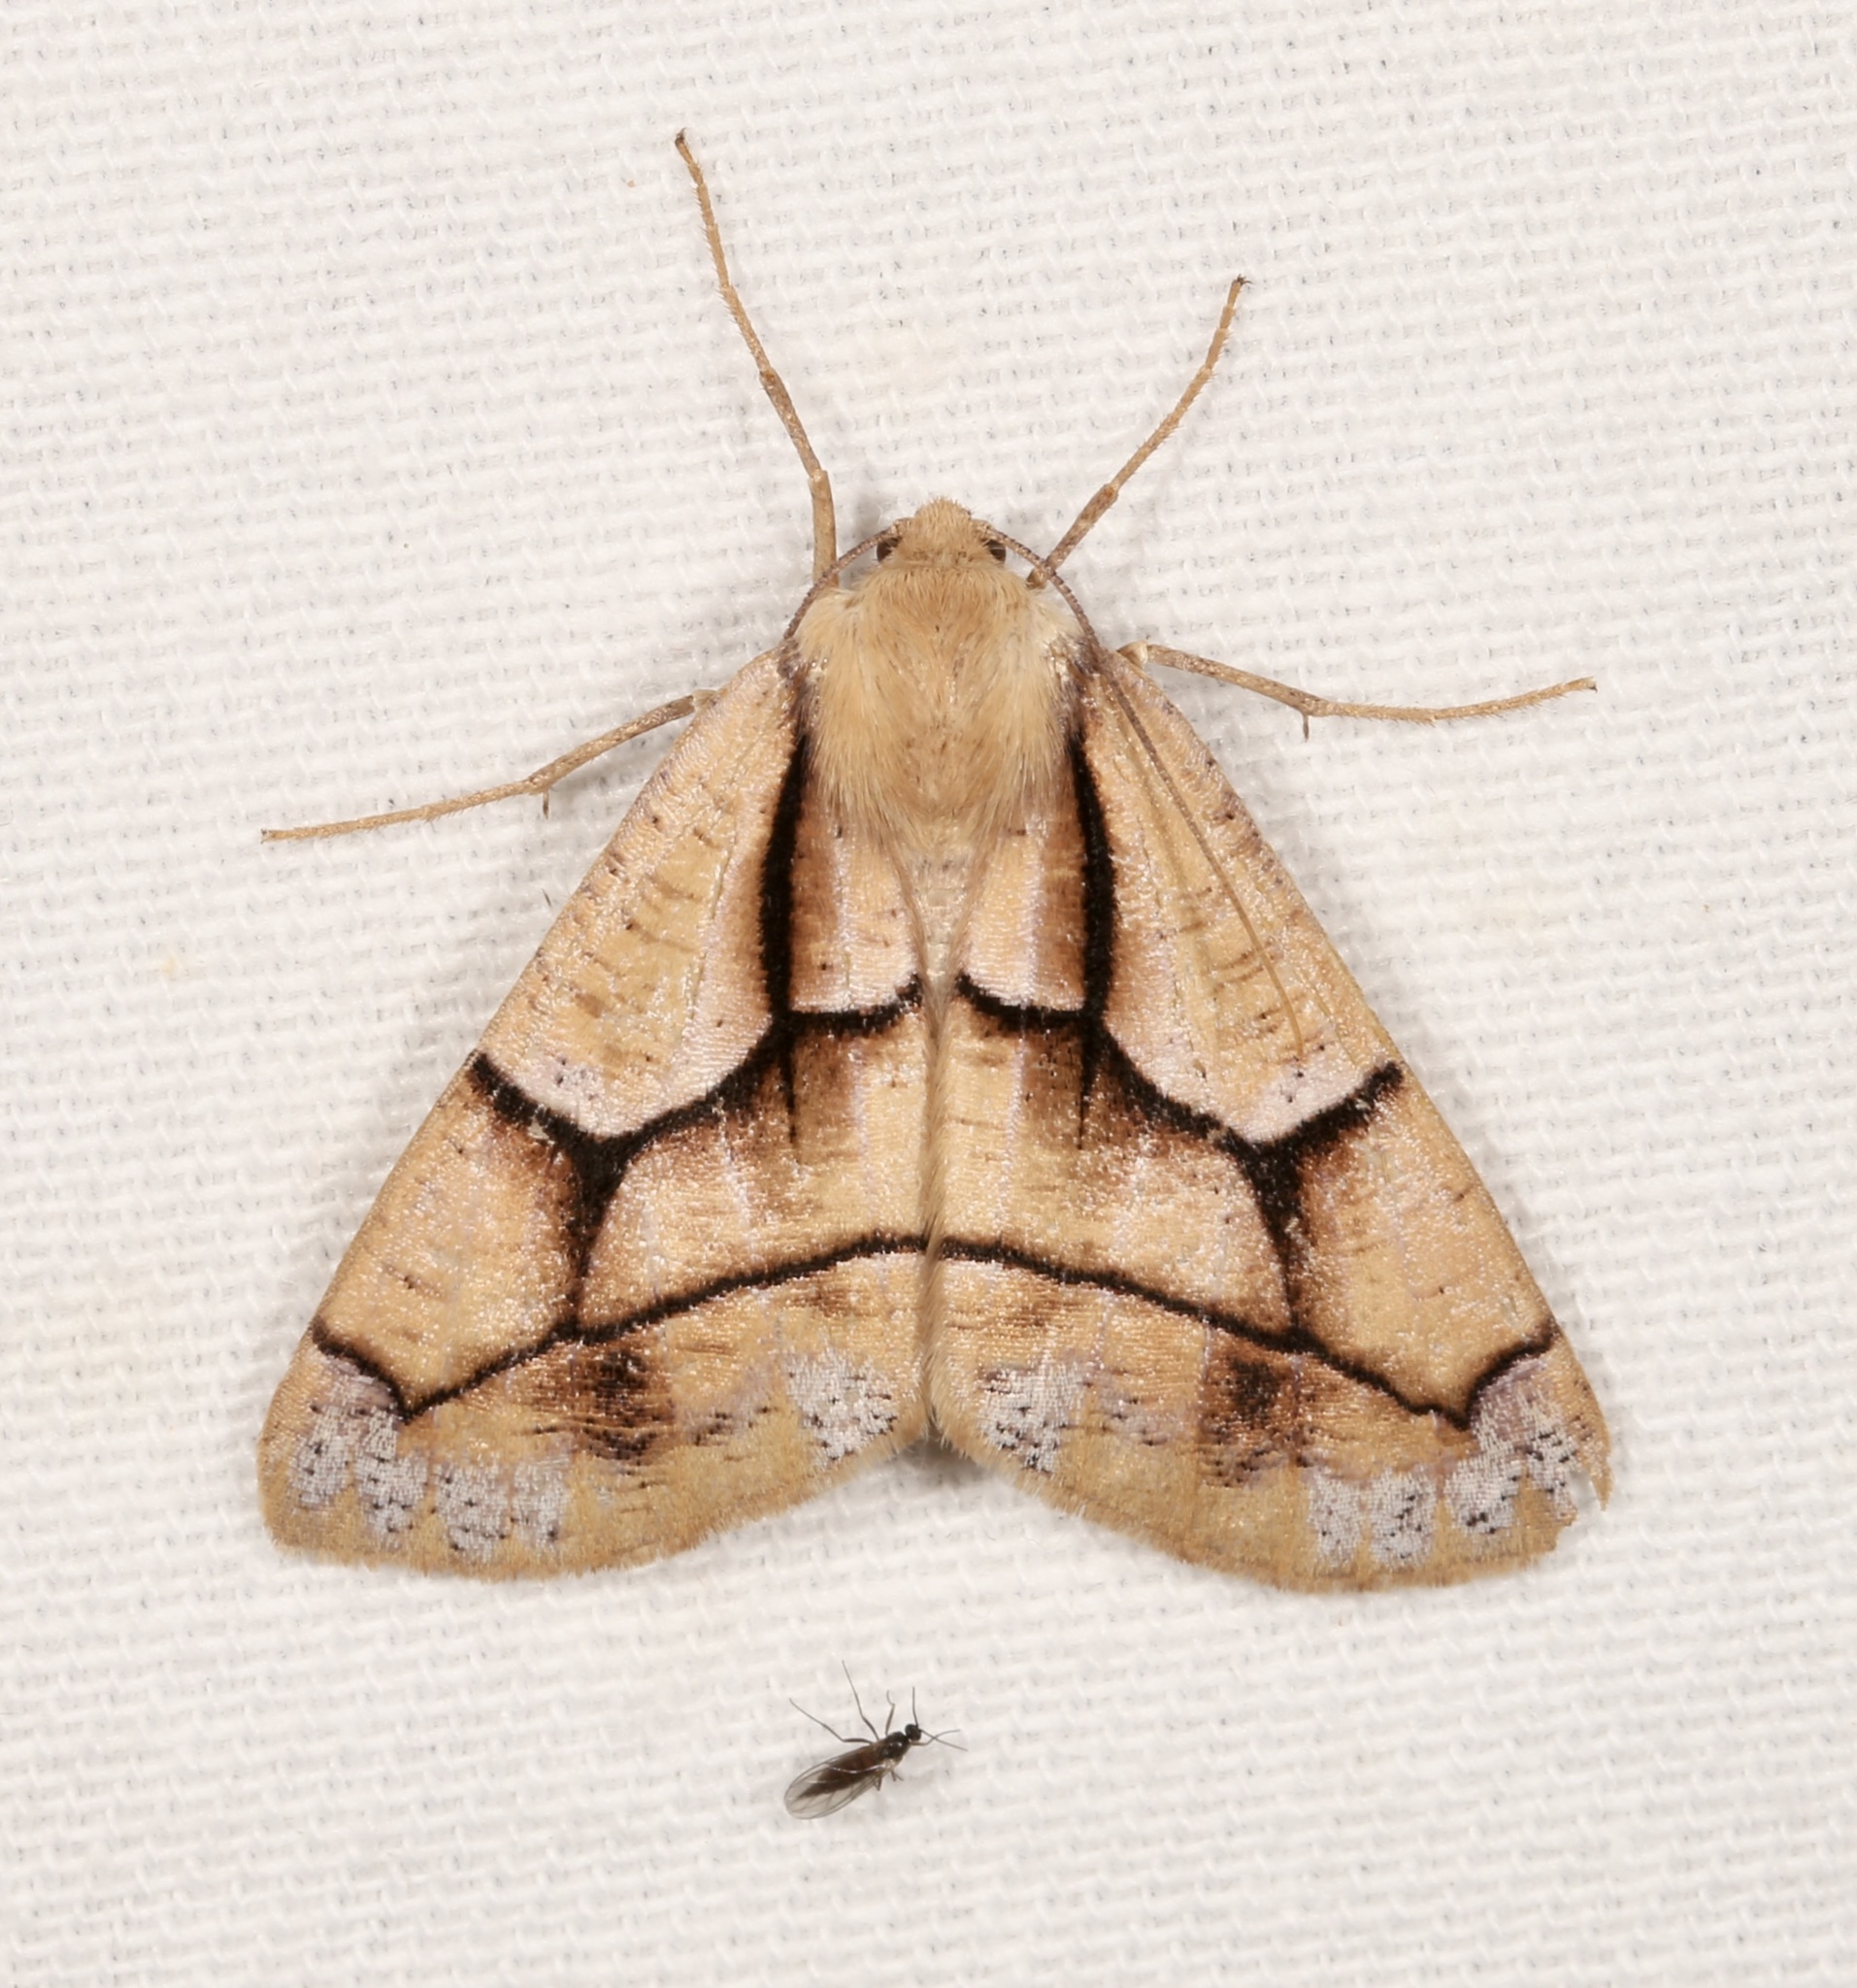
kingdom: Animalia
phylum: Arthropoda
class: Insecta
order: Lepidoptera
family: Geometridae
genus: Snowia
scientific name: Snowia montanaria
